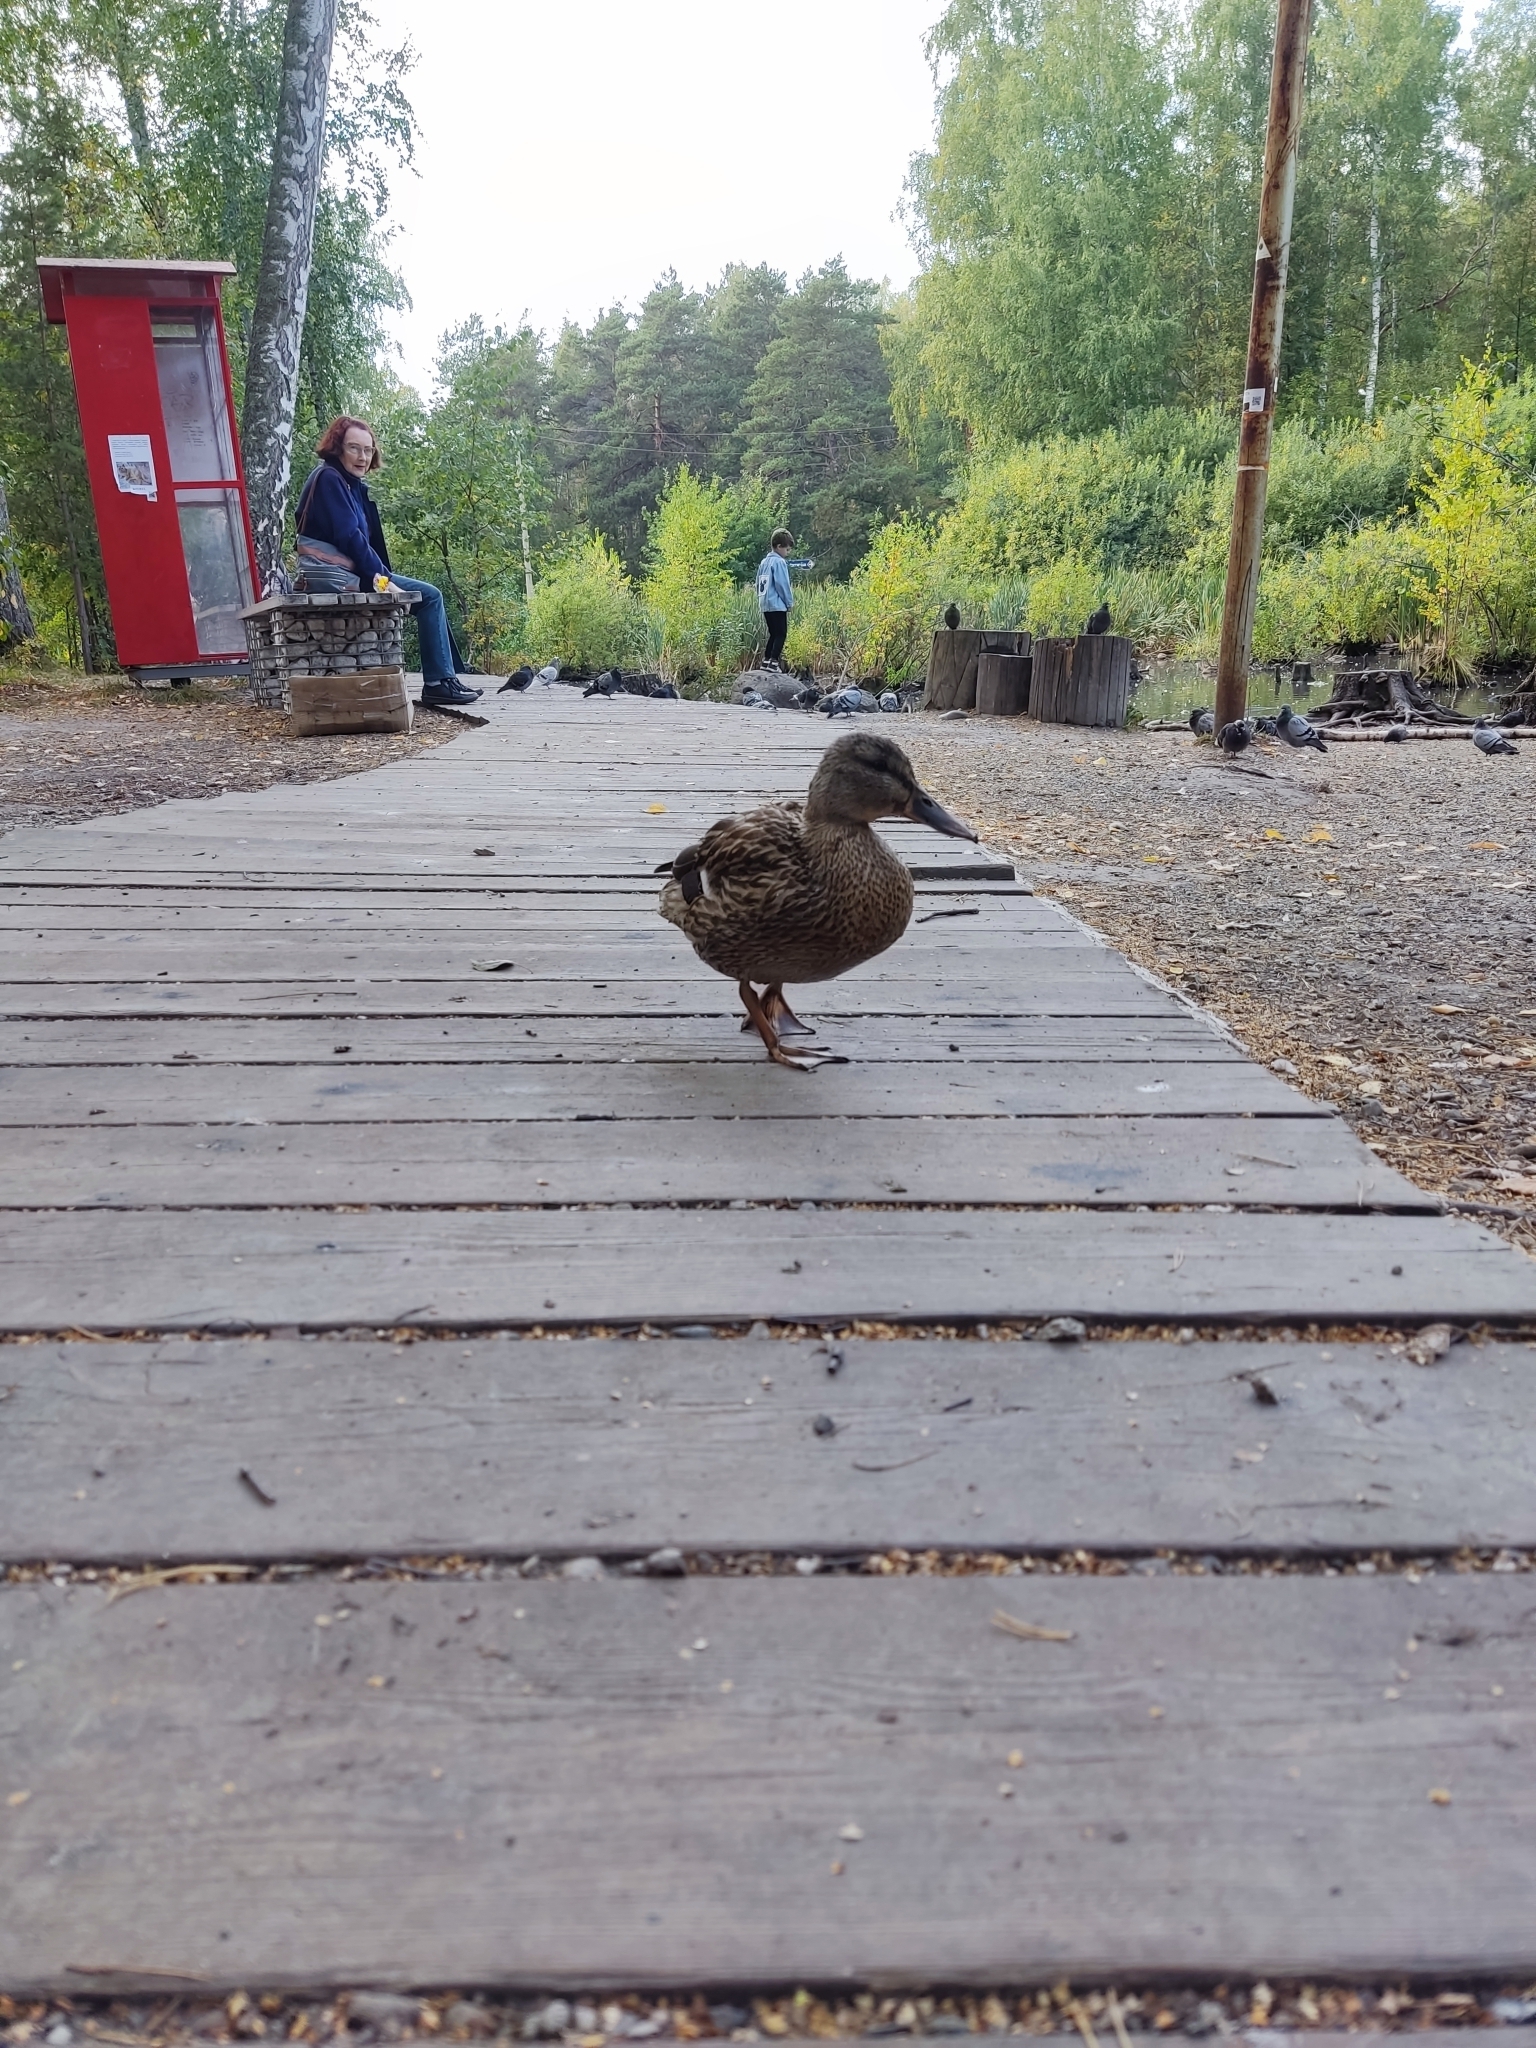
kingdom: Animalia
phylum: Chordata
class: Aves
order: Anseriformes
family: Anatidae
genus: Anas
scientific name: Anas platyrhynchos
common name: Mallard
